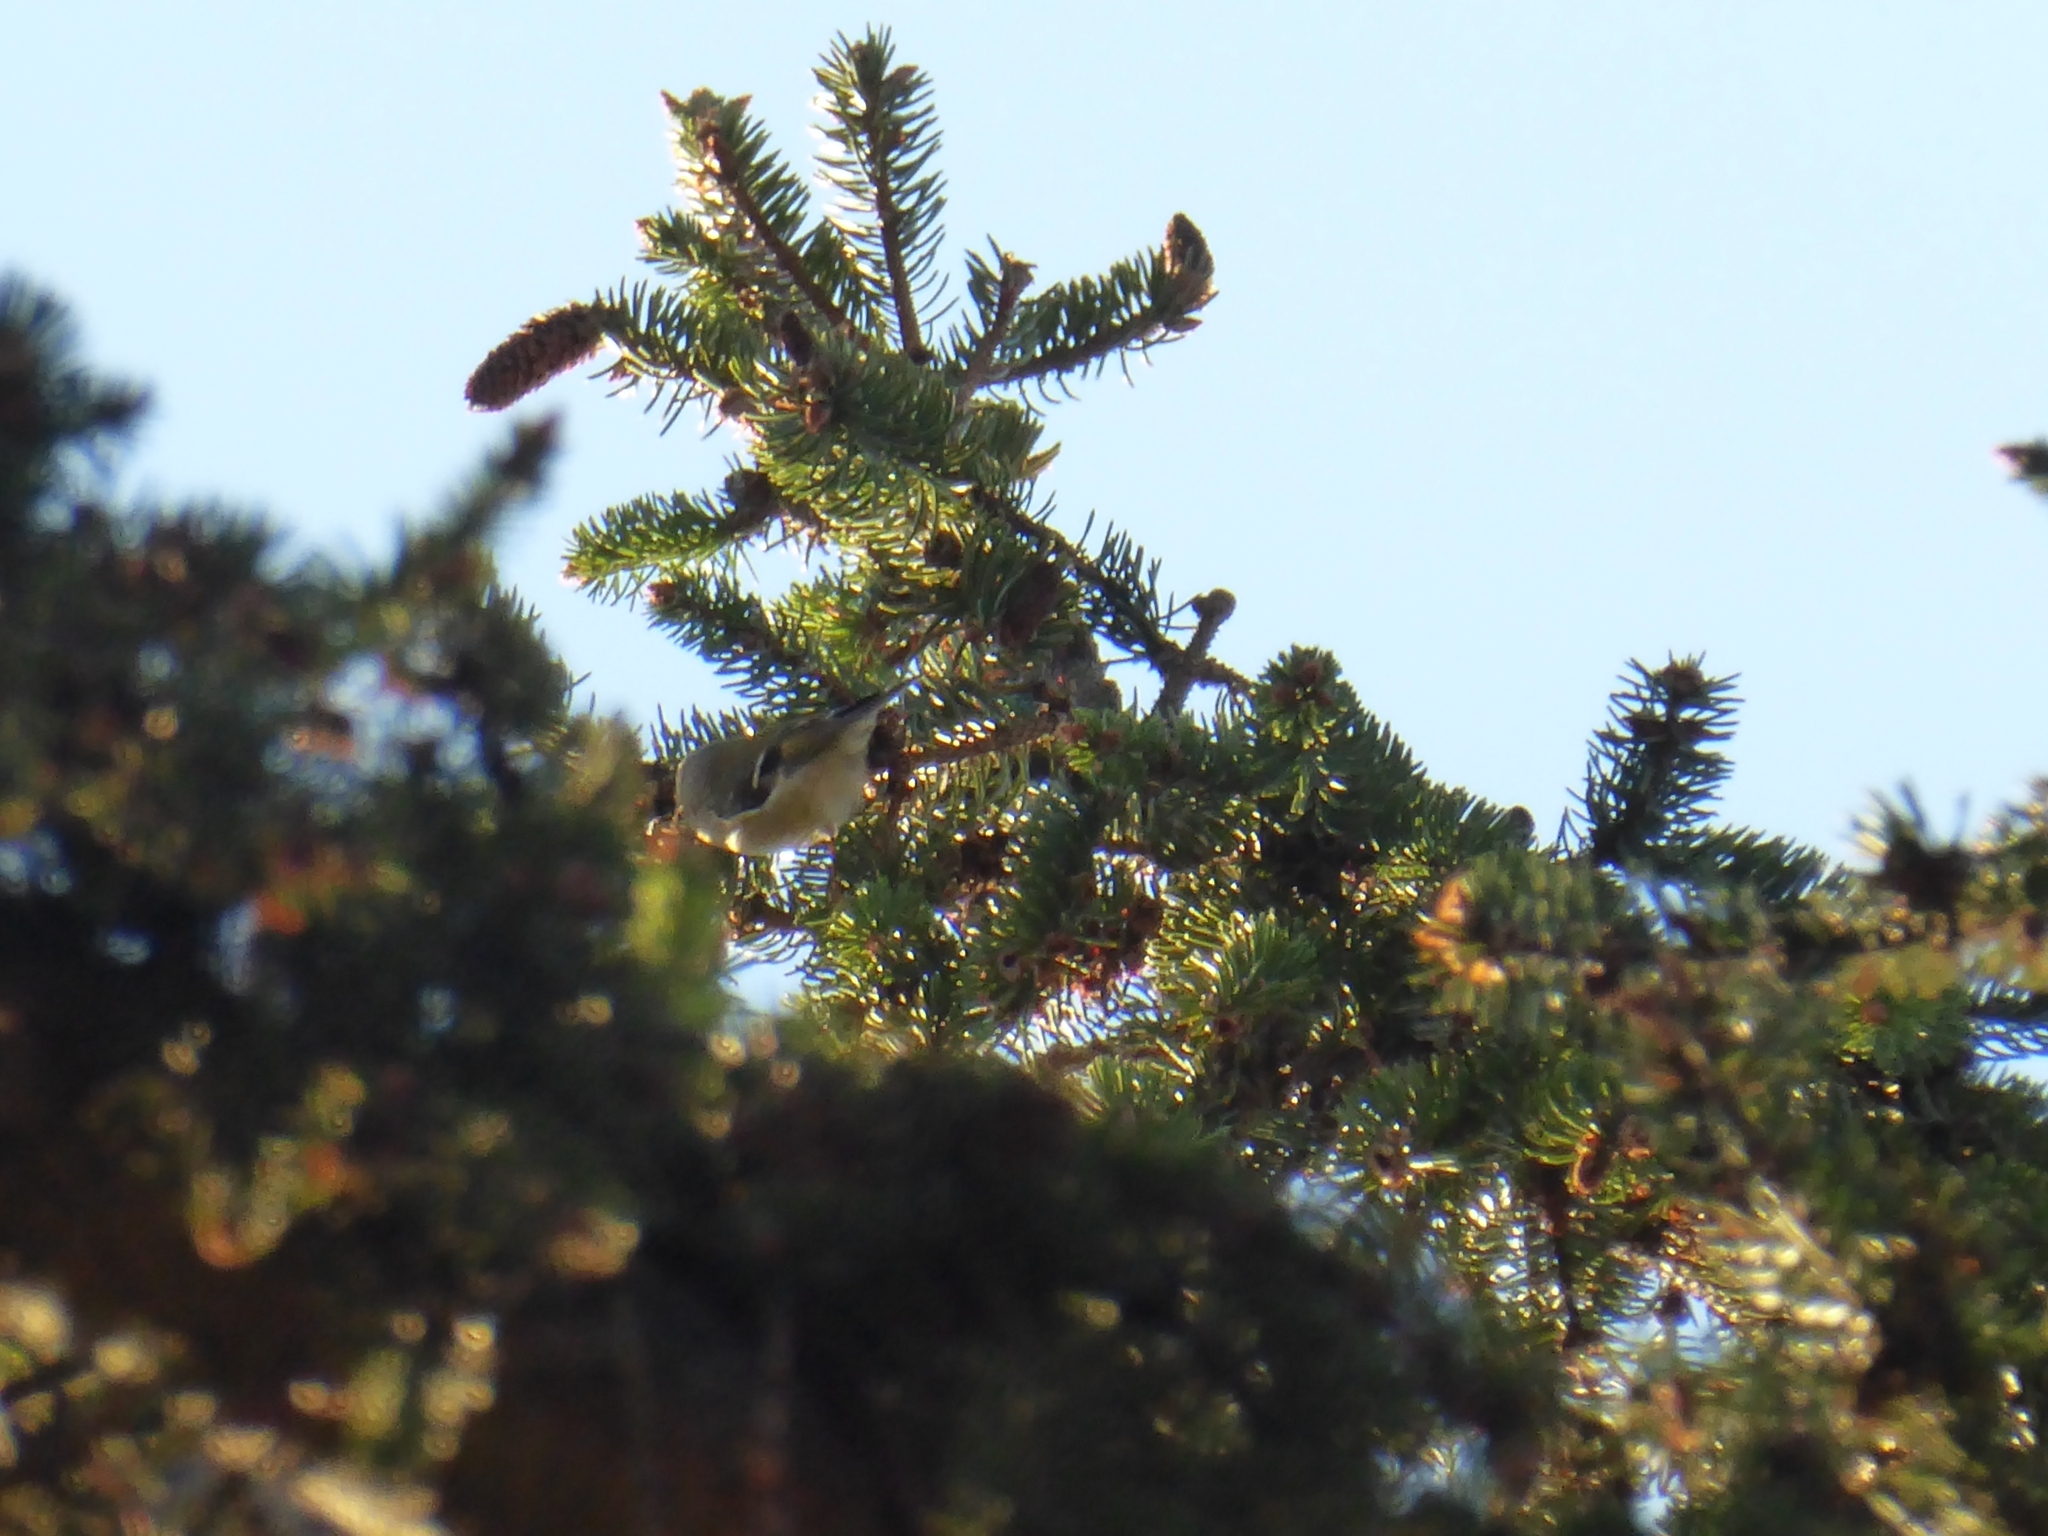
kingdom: Animalia
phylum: Chordata
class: Aves
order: Passeriformes
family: Regulidae
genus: Regulus
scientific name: Regulus regulus
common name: Goldcrest
